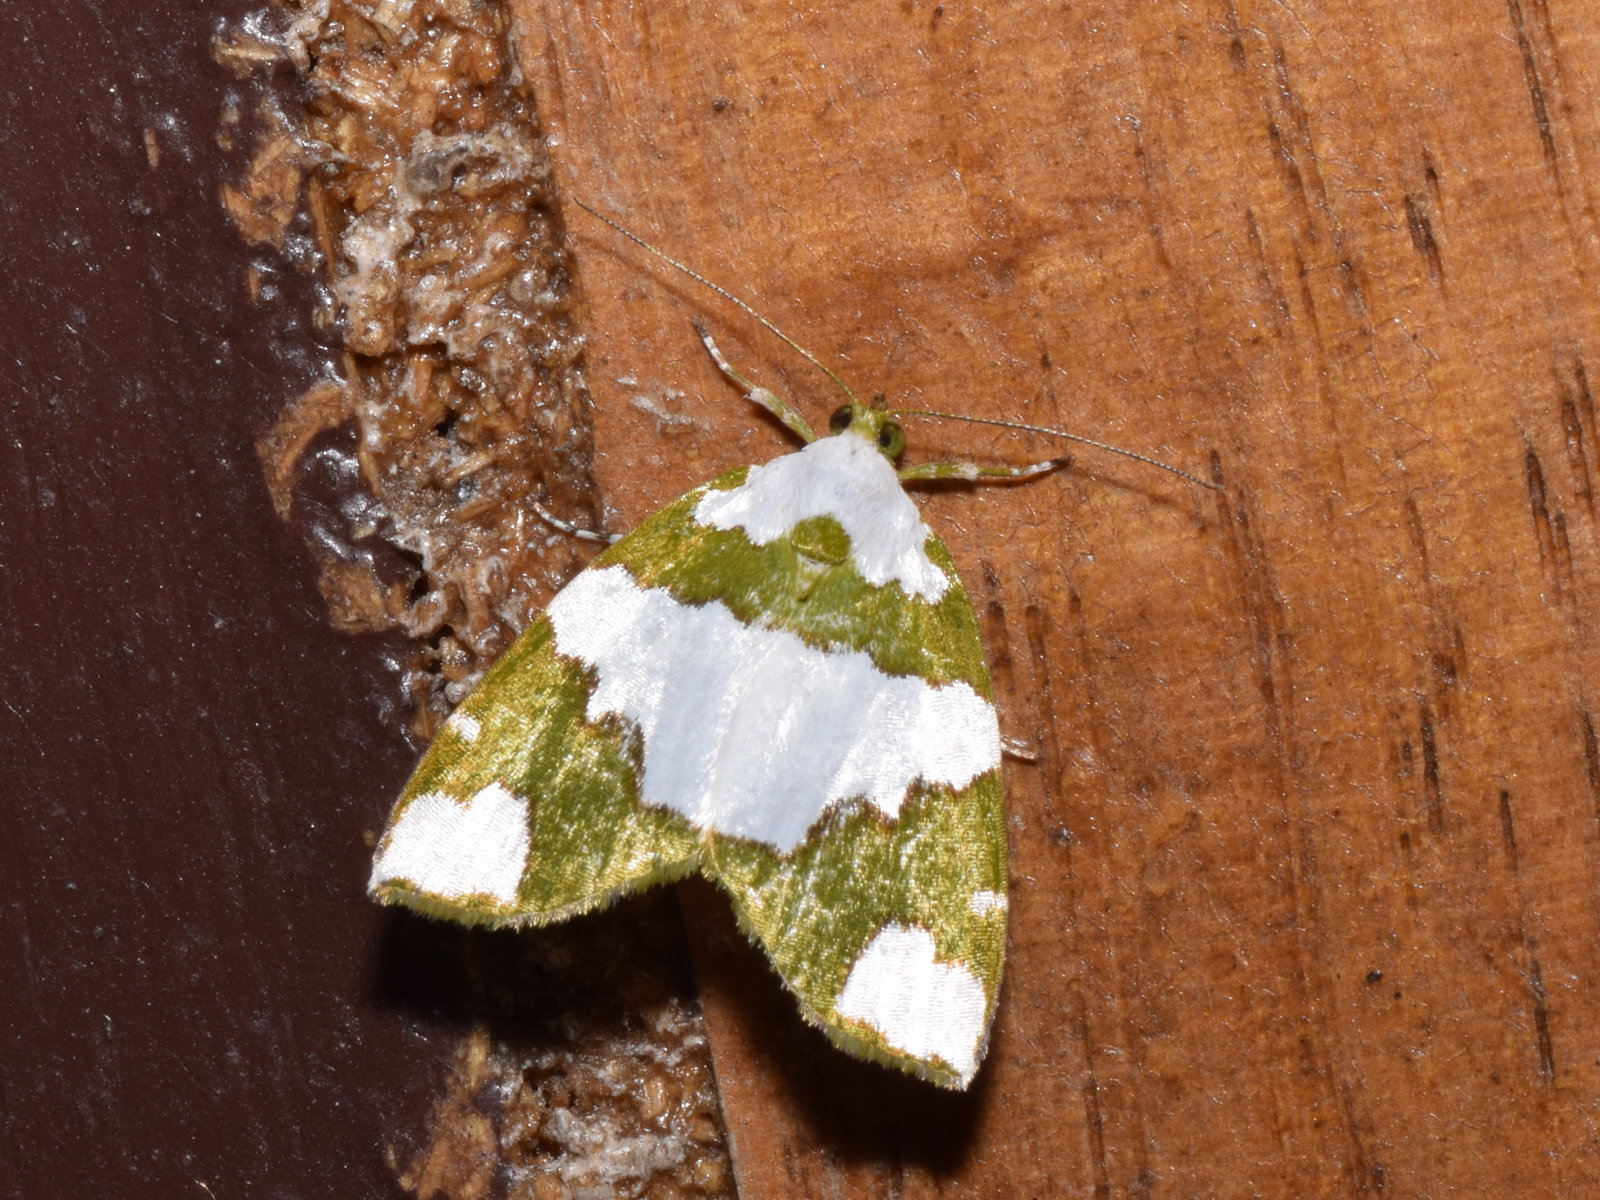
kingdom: Animalia
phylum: Arthropoda
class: Insecta
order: Lepidoptera
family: Nolidae
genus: Ariolica
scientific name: Ariolica pulchella
